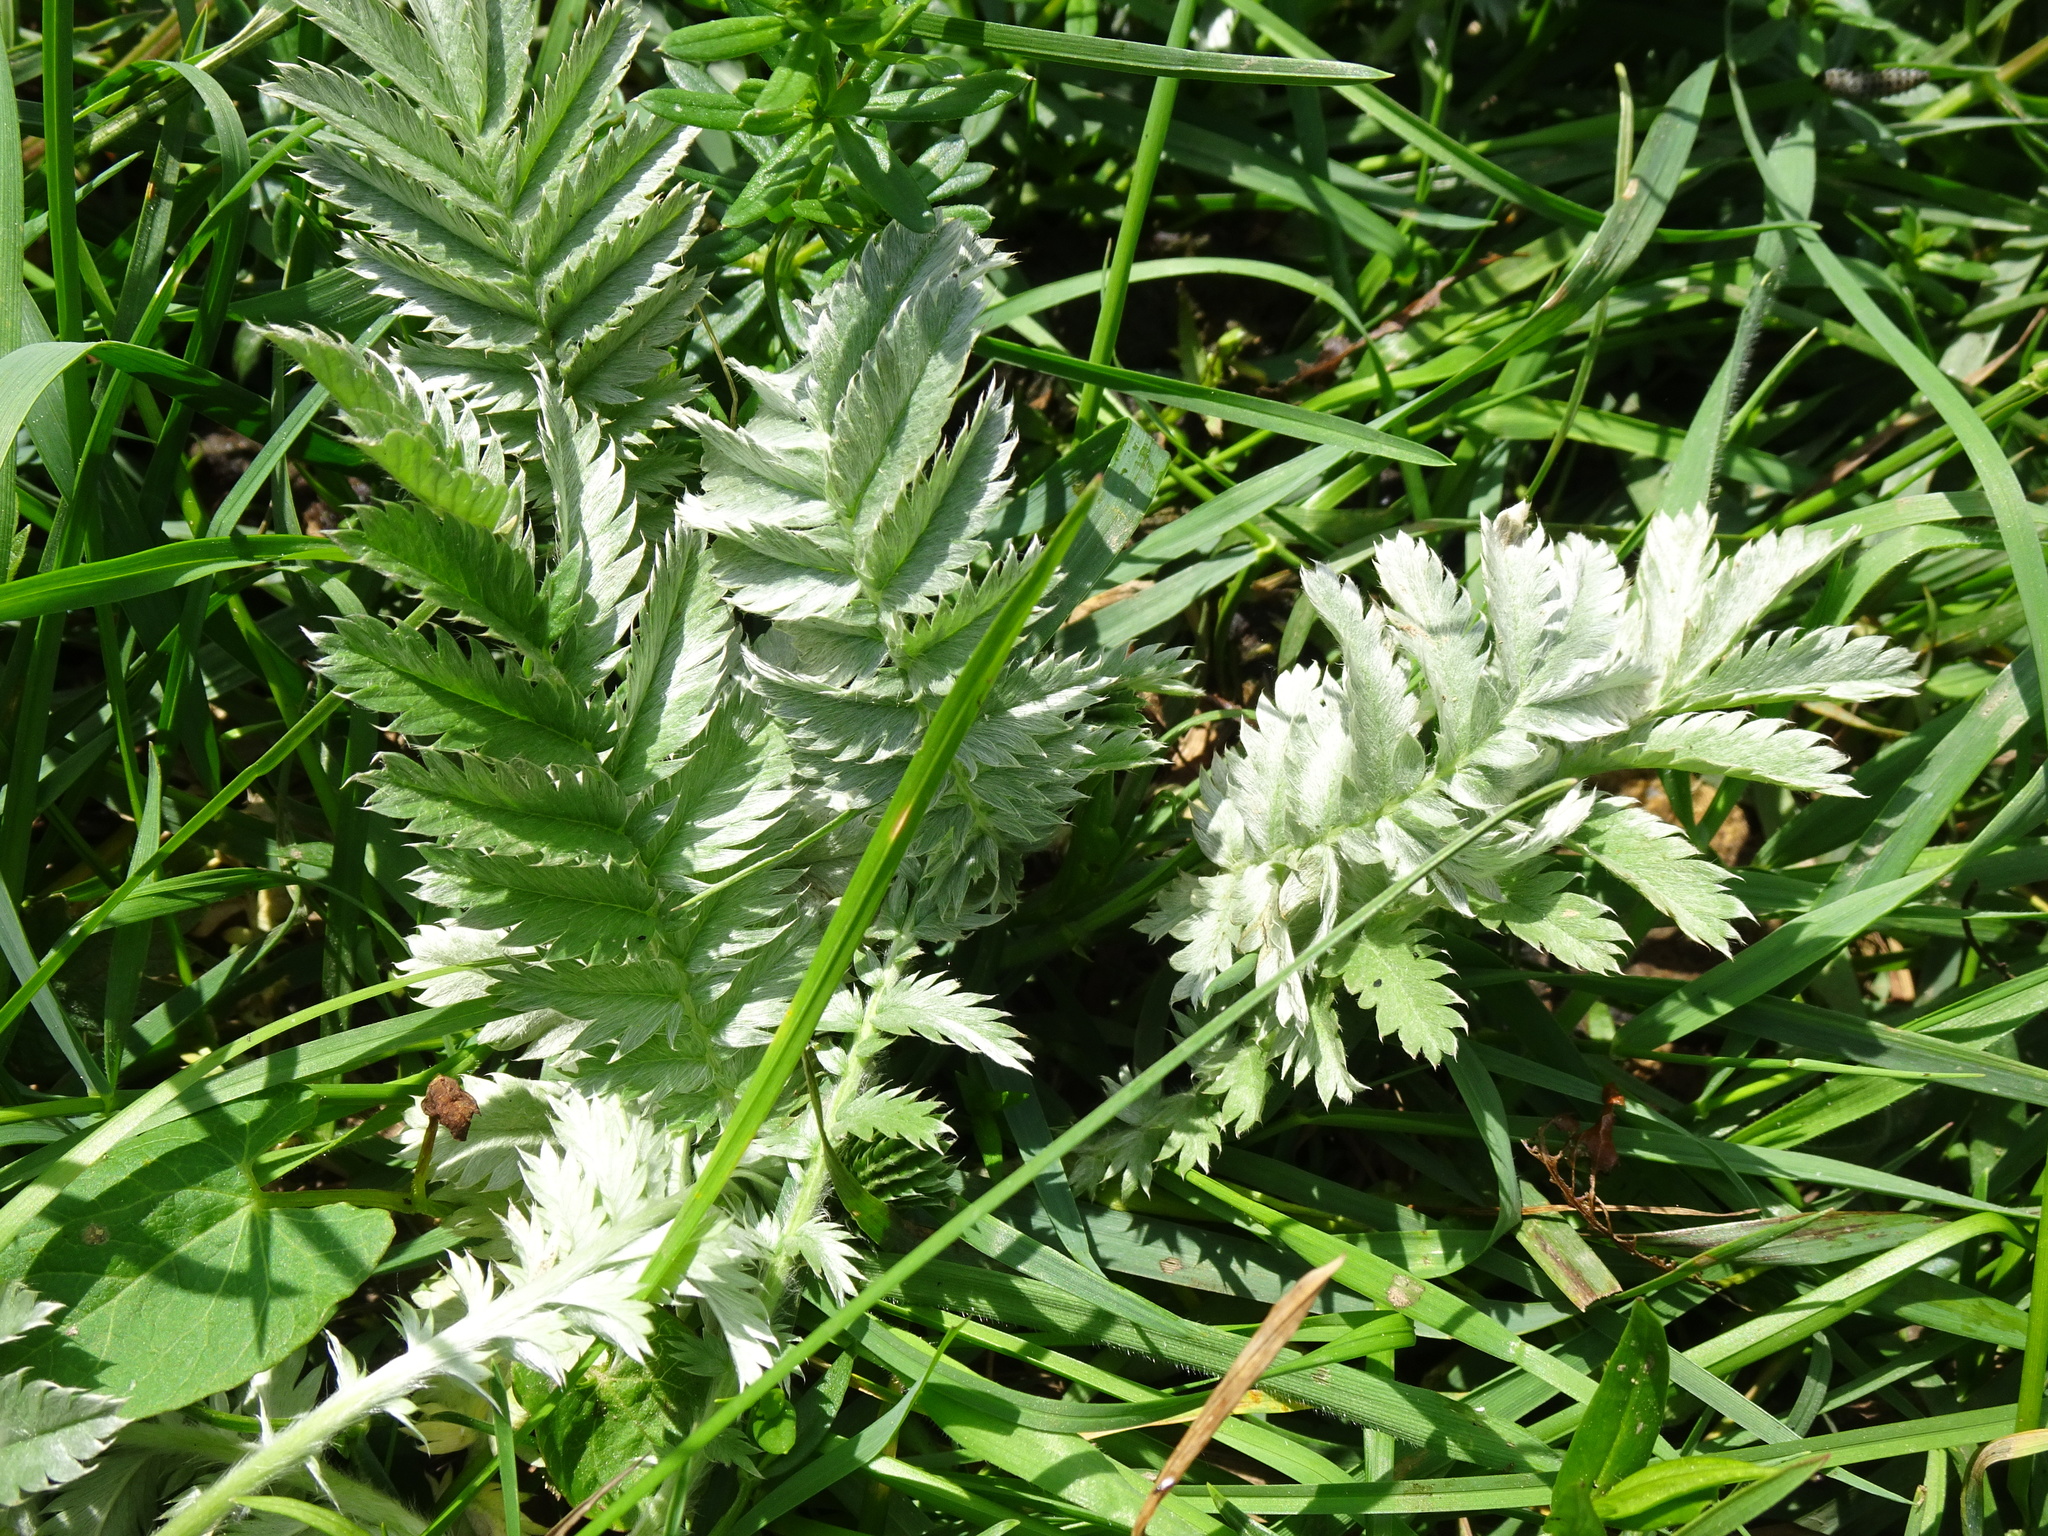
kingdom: Plantae
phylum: Tracheophyta
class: Magnoliopsida
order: Rosales
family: Rosaceae
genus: Argentina
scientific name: Argentina anserina
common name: Common silverweed
